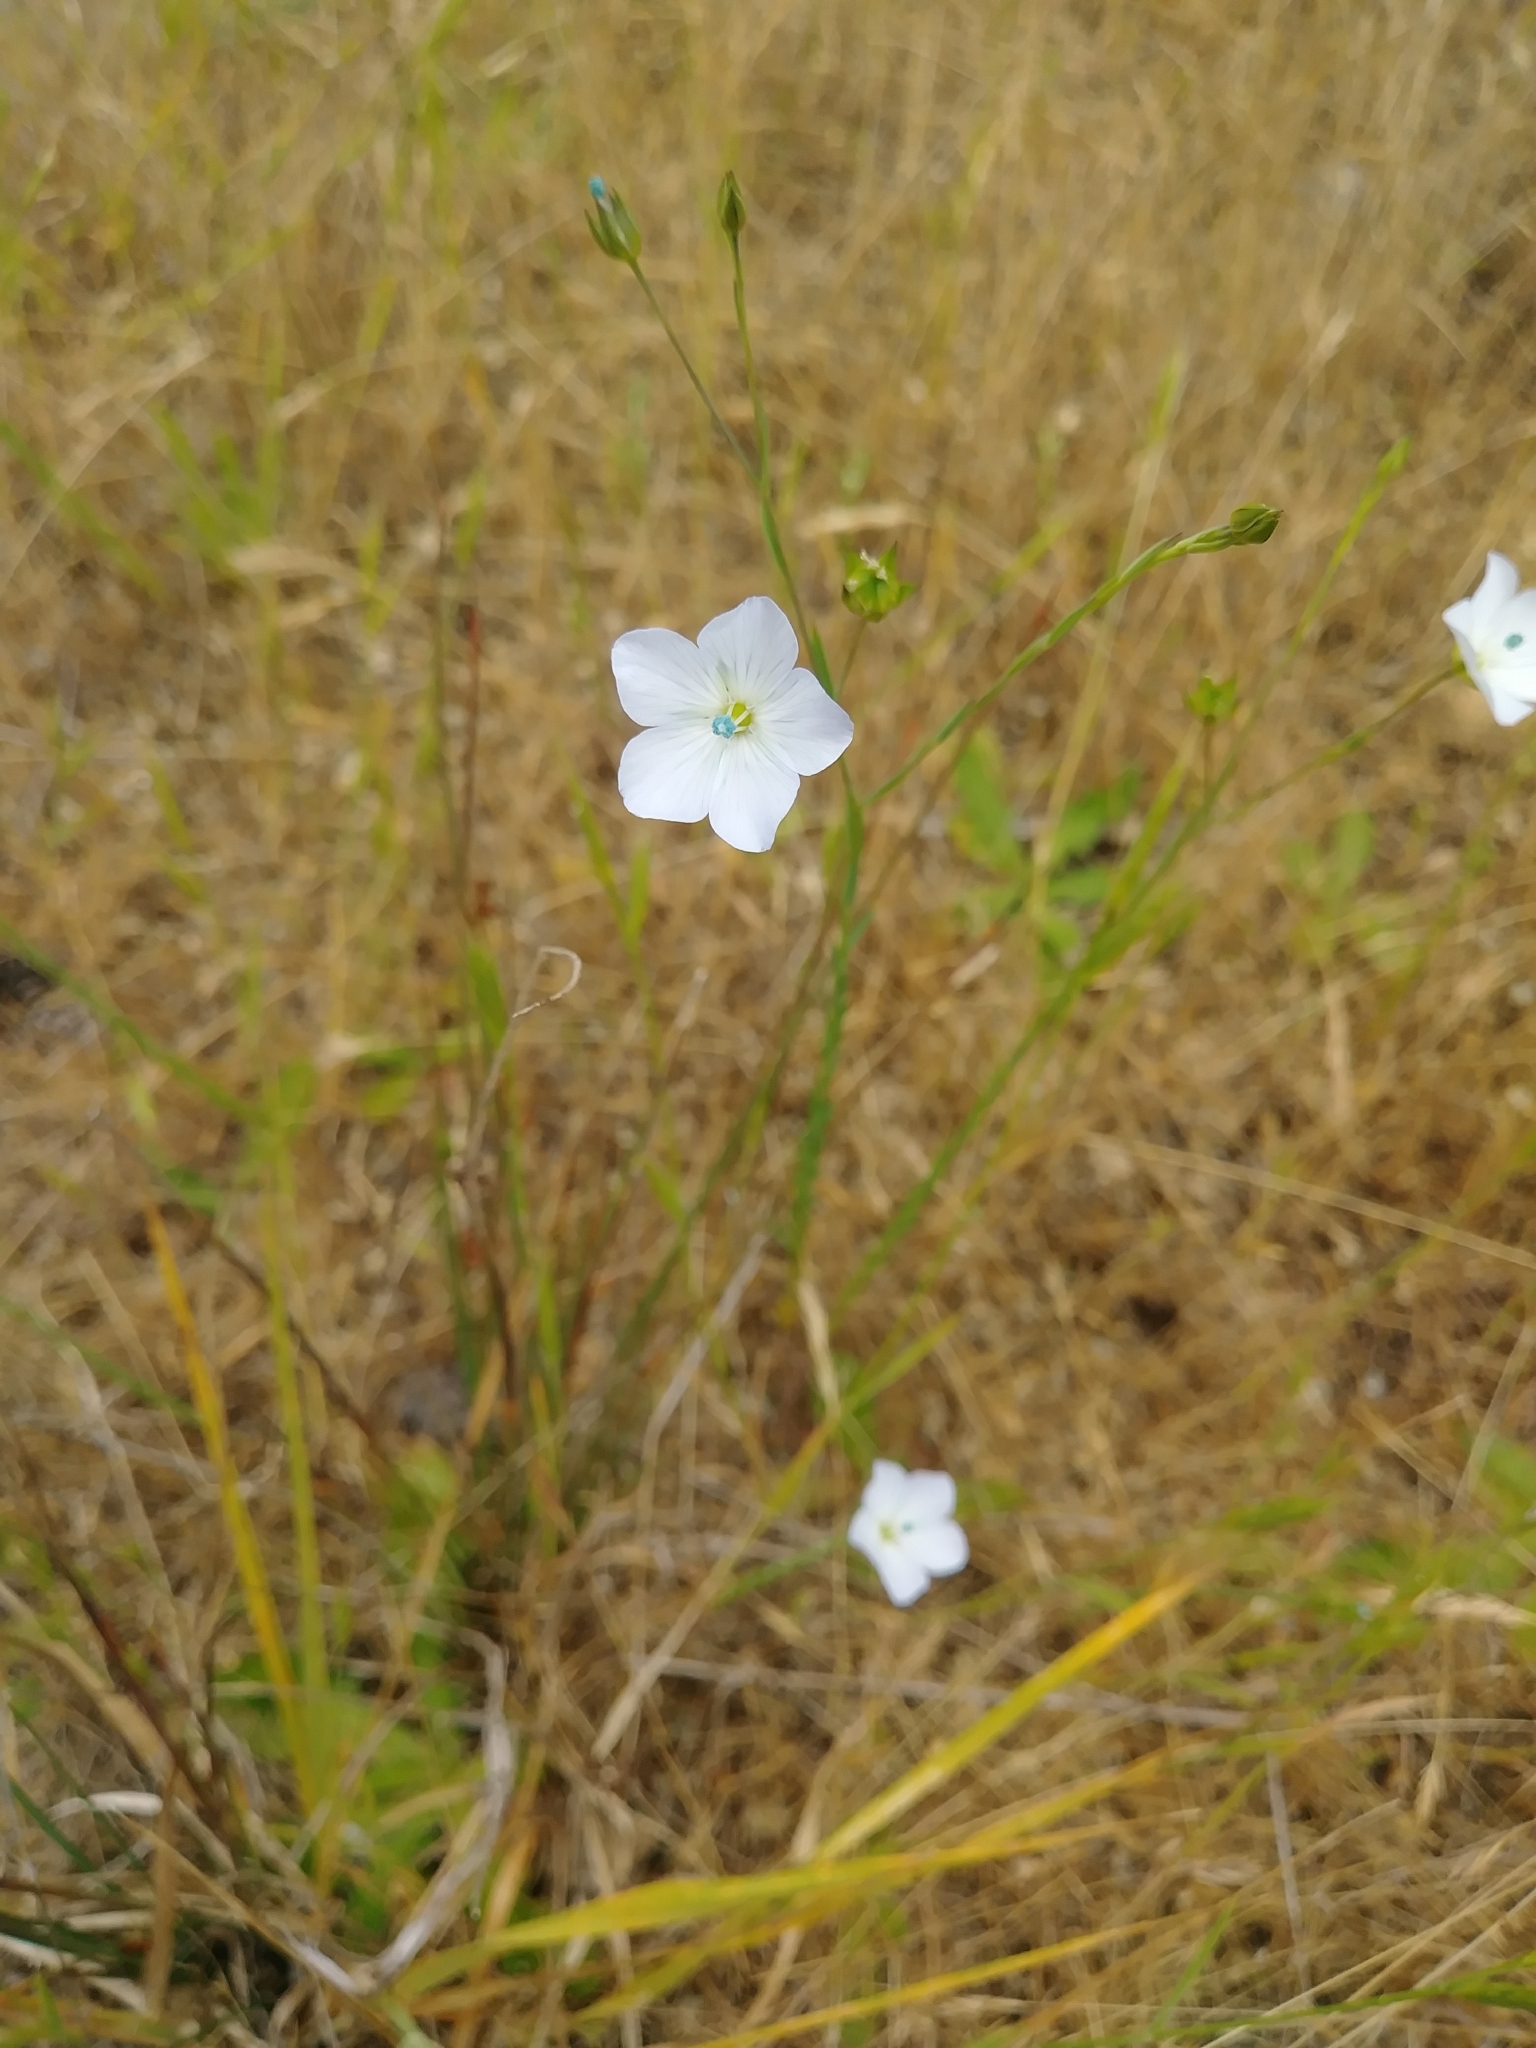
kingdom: Plantae
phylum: Tracheophyta
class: Magnoliopsida
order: Malpighiales
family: Linaceae
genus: Linum
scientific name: Linum bienne
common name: Pale flax
